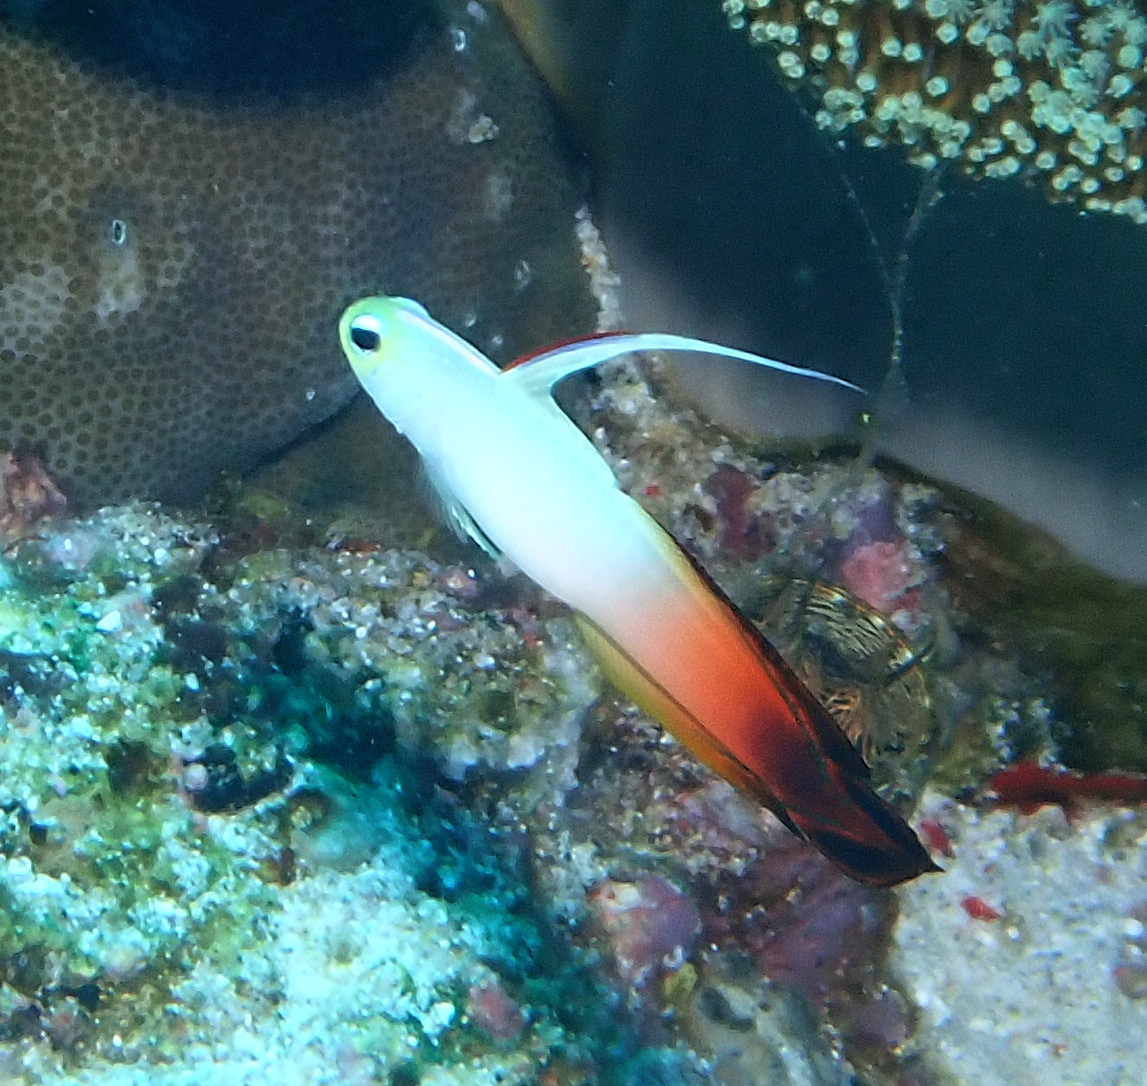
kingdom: Animalia
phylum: Chordata
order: Perciformes
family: Microdesmidae
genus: Nemateleotris
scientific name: Nemateleotris magnifica
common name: Fire goby
